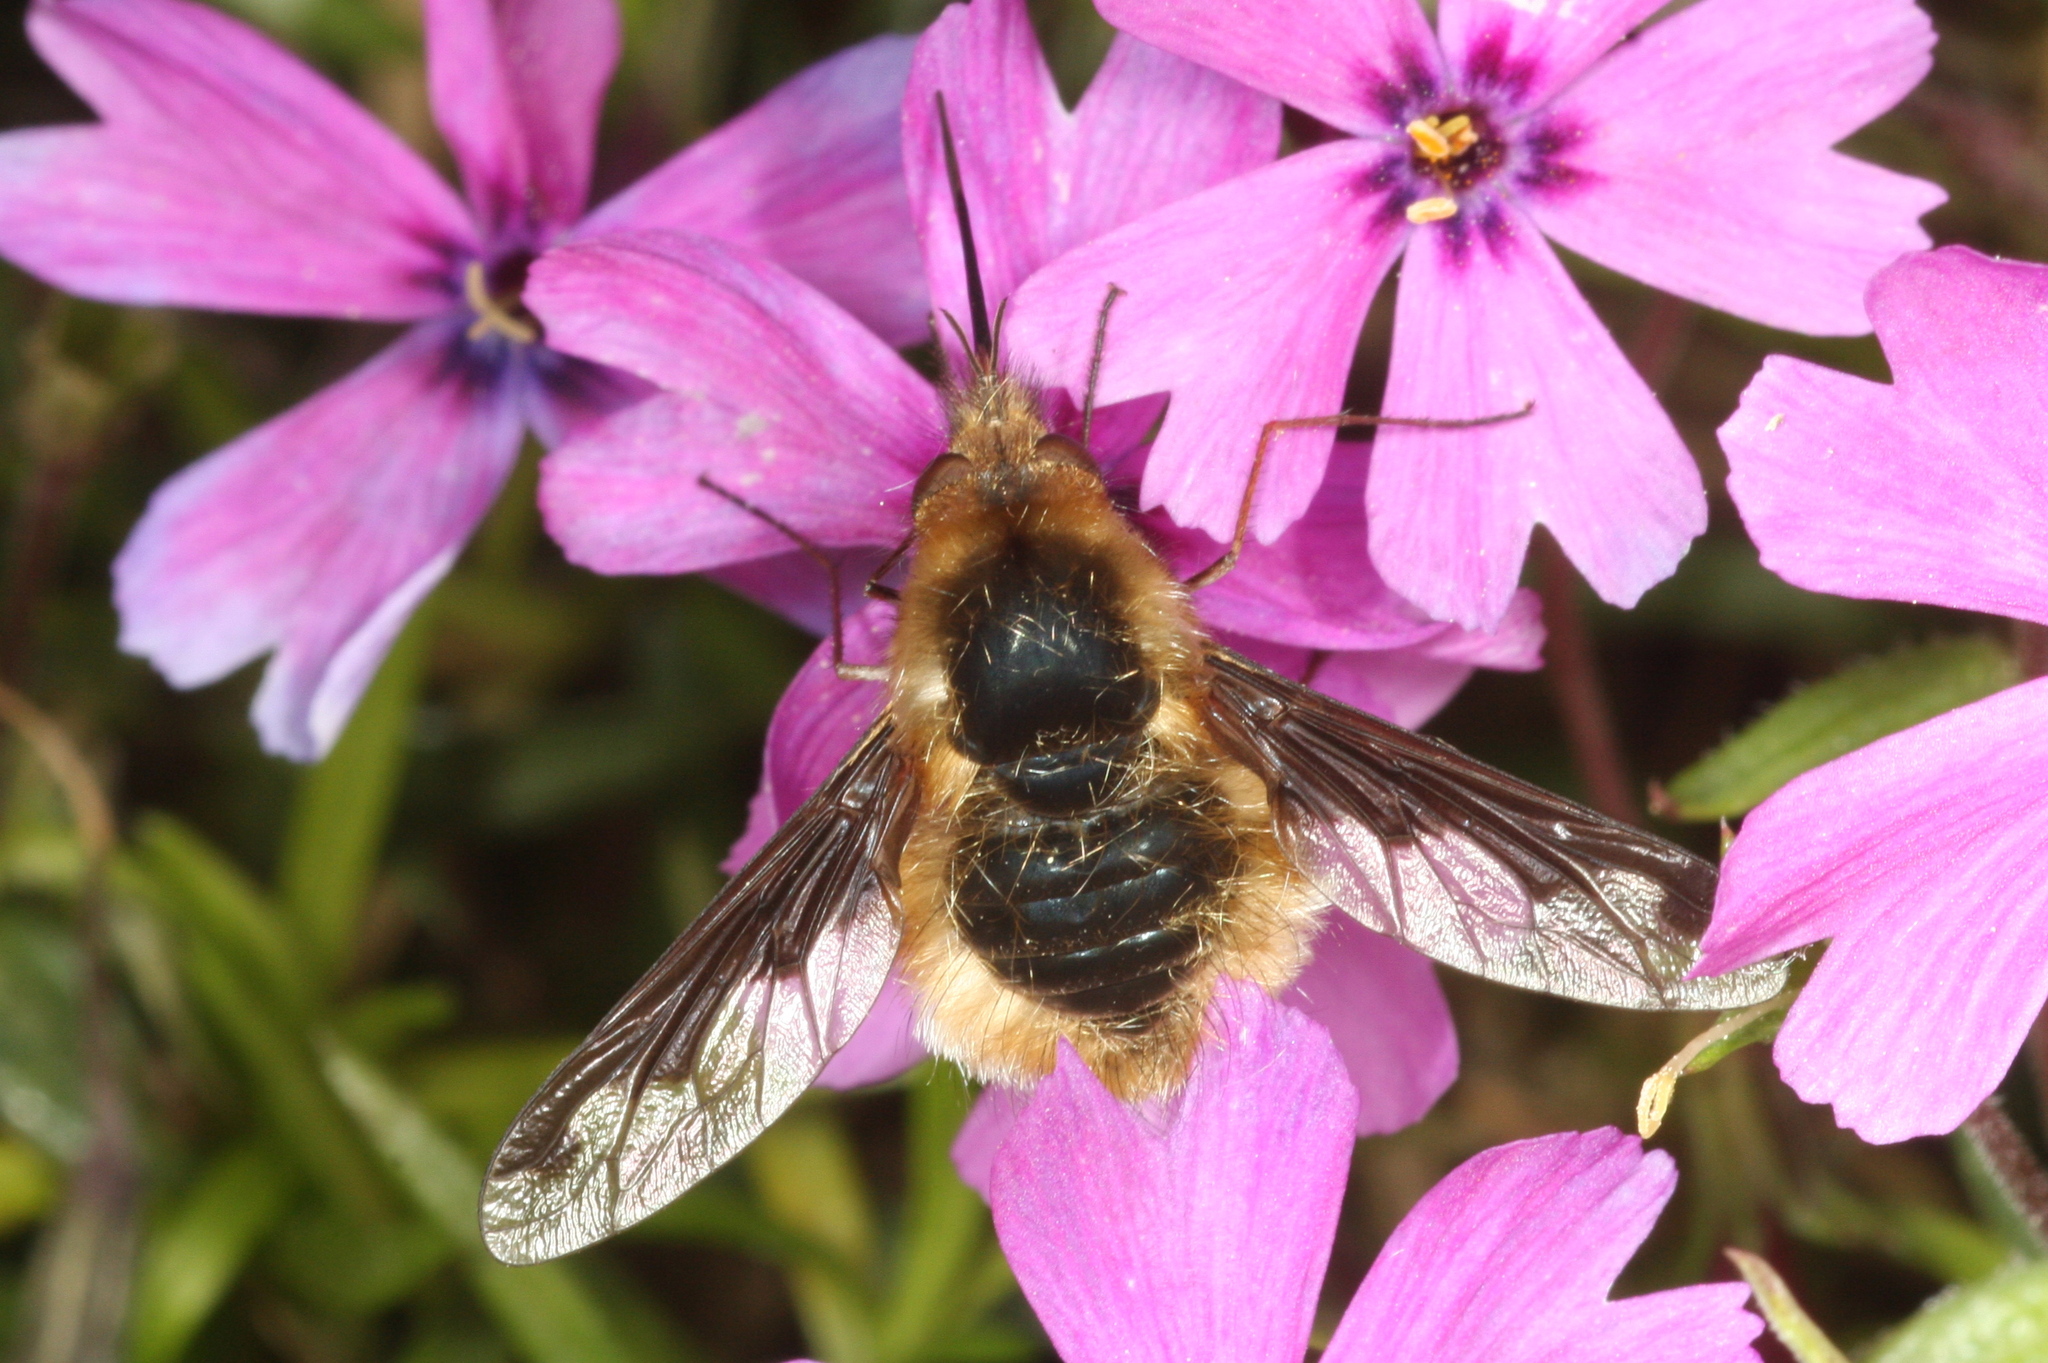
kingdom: Animalia
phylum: Arthropoda
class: Insecta
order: Diptera
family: Bombyliidae
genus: Bombylius
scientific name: Bombylius major
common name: Bee fly
